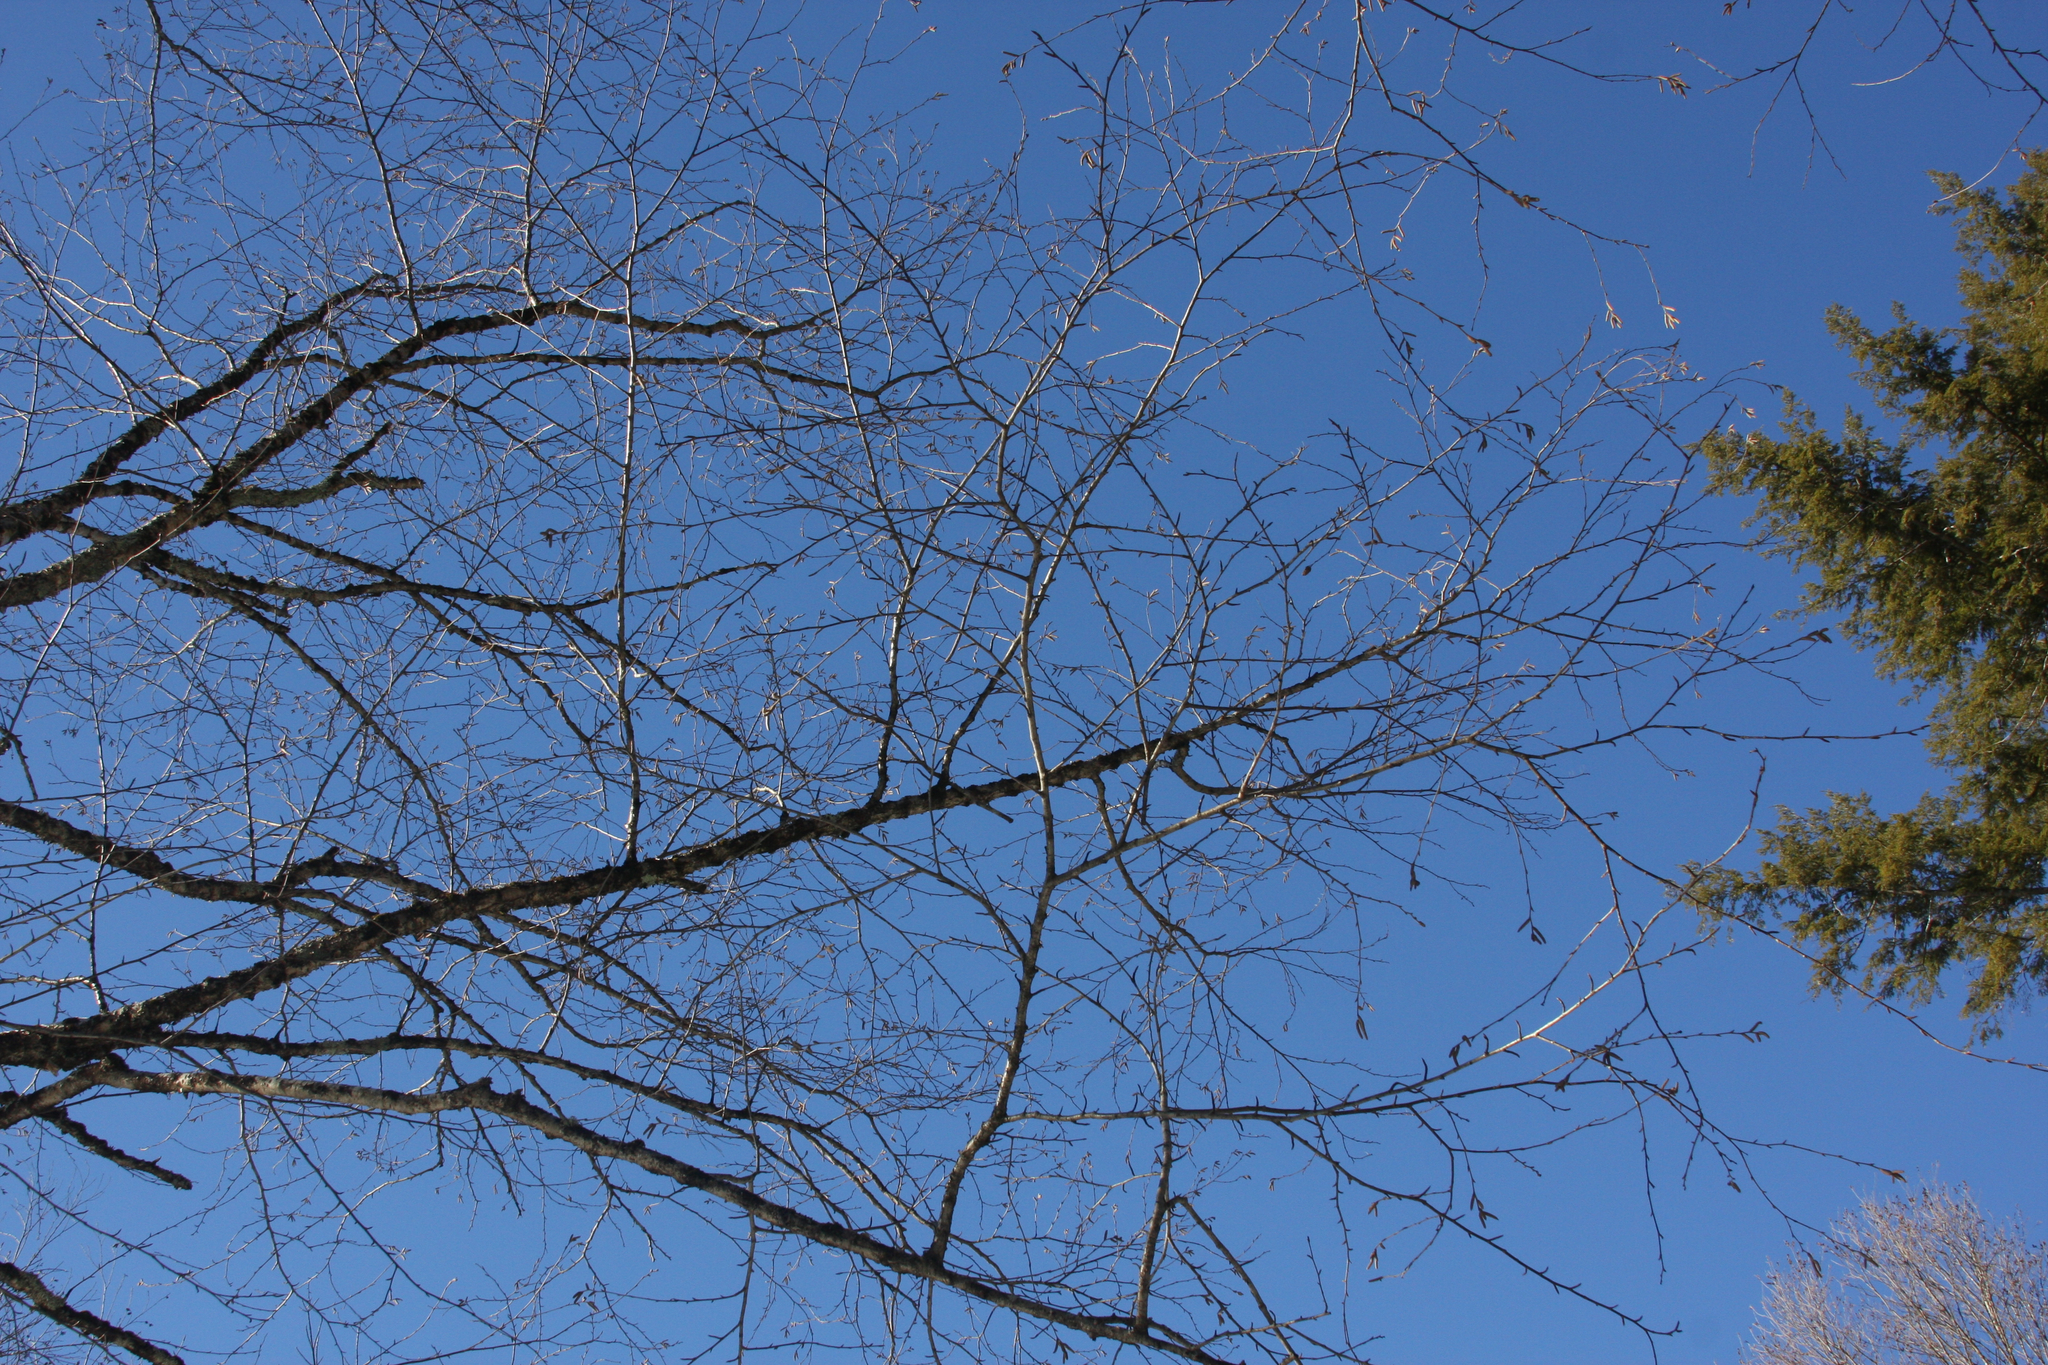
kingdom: Plantae
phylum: Tracheophyta
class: Magnoliopsida
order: Fagales
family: Betulaceae
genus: Betula
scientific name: Betula alleghaniensis
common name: Yellow birch
